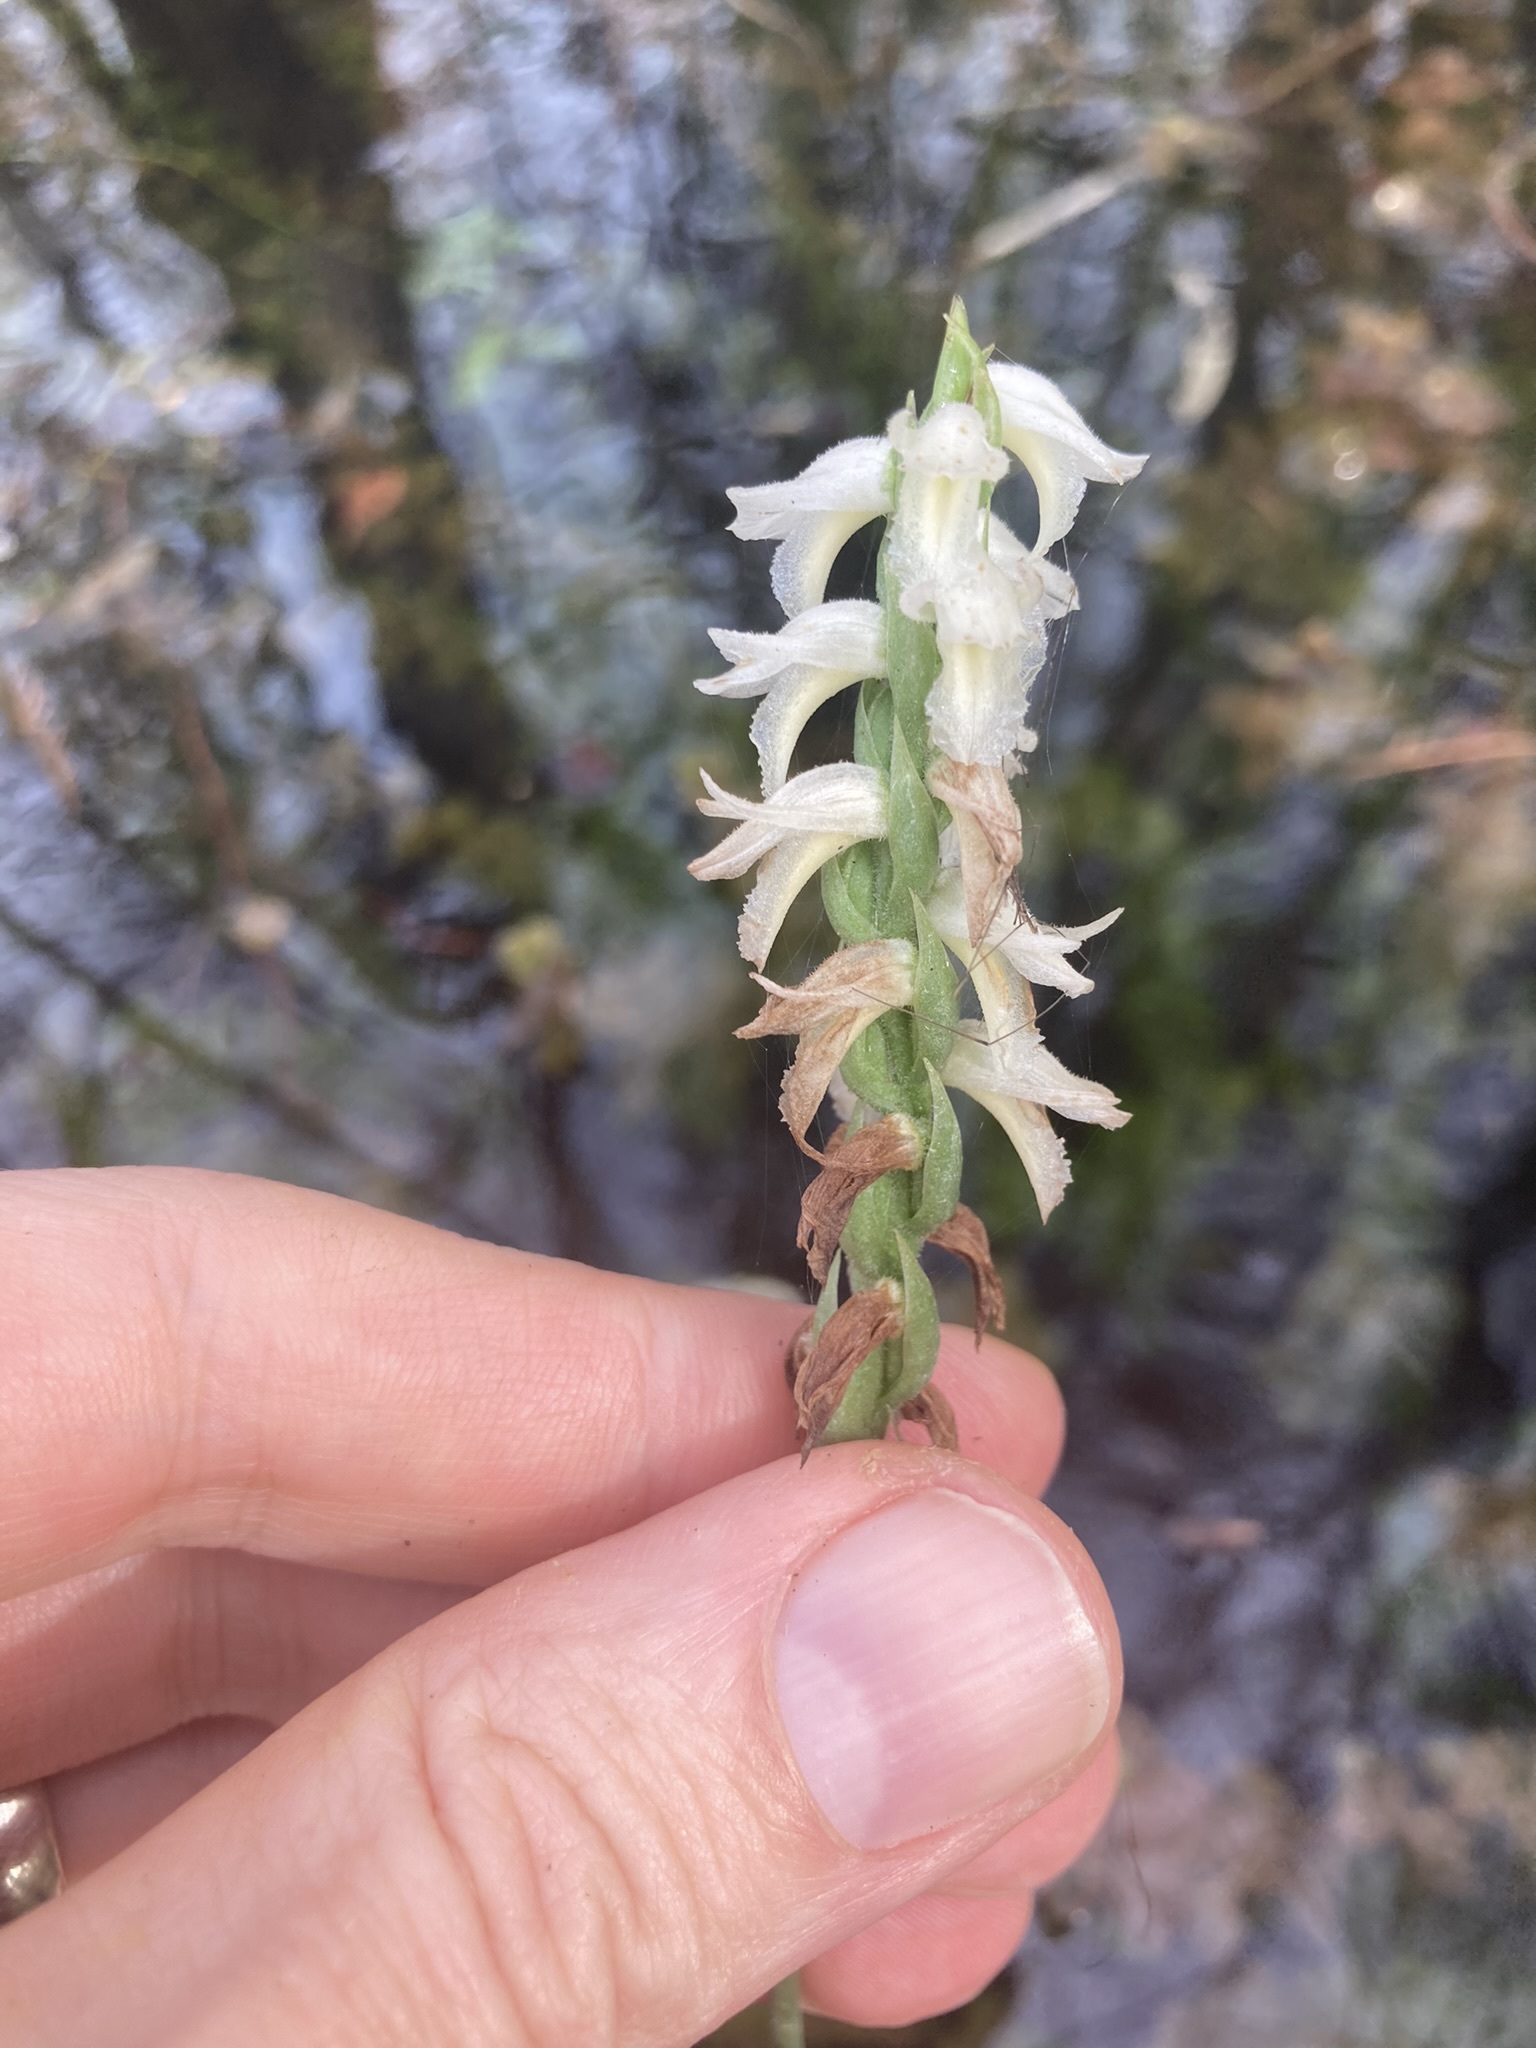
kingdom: Plantae
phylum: Tracheophyta
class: Liliopsida
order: Asparagales
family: Orchidaceae
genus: Spiranthes
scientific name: Spiranthes odorata
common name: Marsh ladies'-tresses
